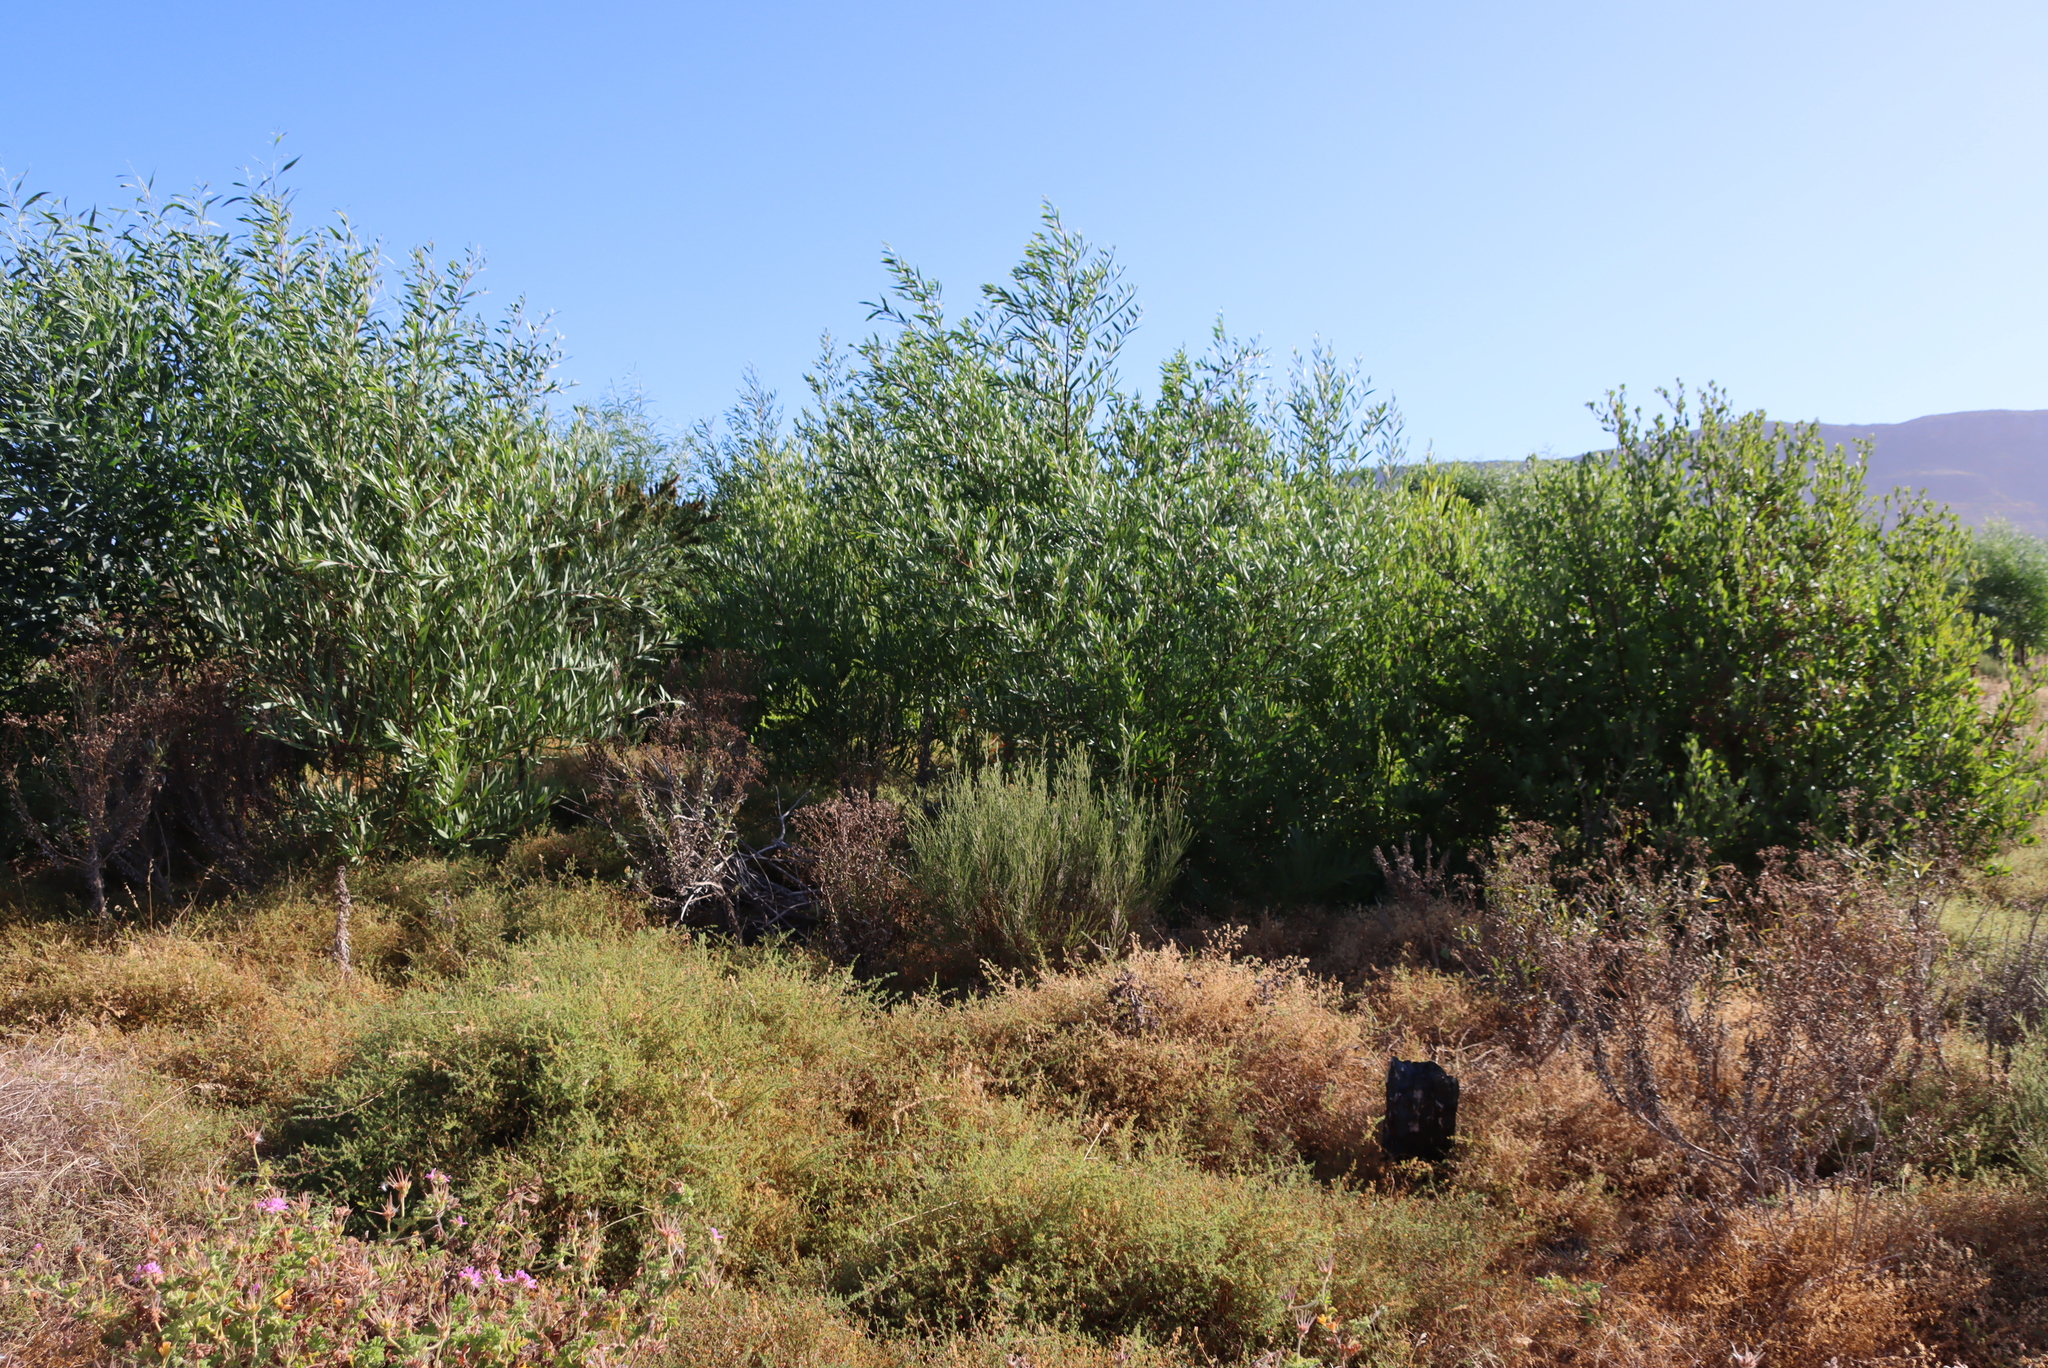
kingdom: Plantae
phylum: Tracheophyta
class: Magnoliopsida
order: Fabales
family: Fabaceae
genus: Acacia
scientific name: Acacia saligna
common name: Orange wattle
